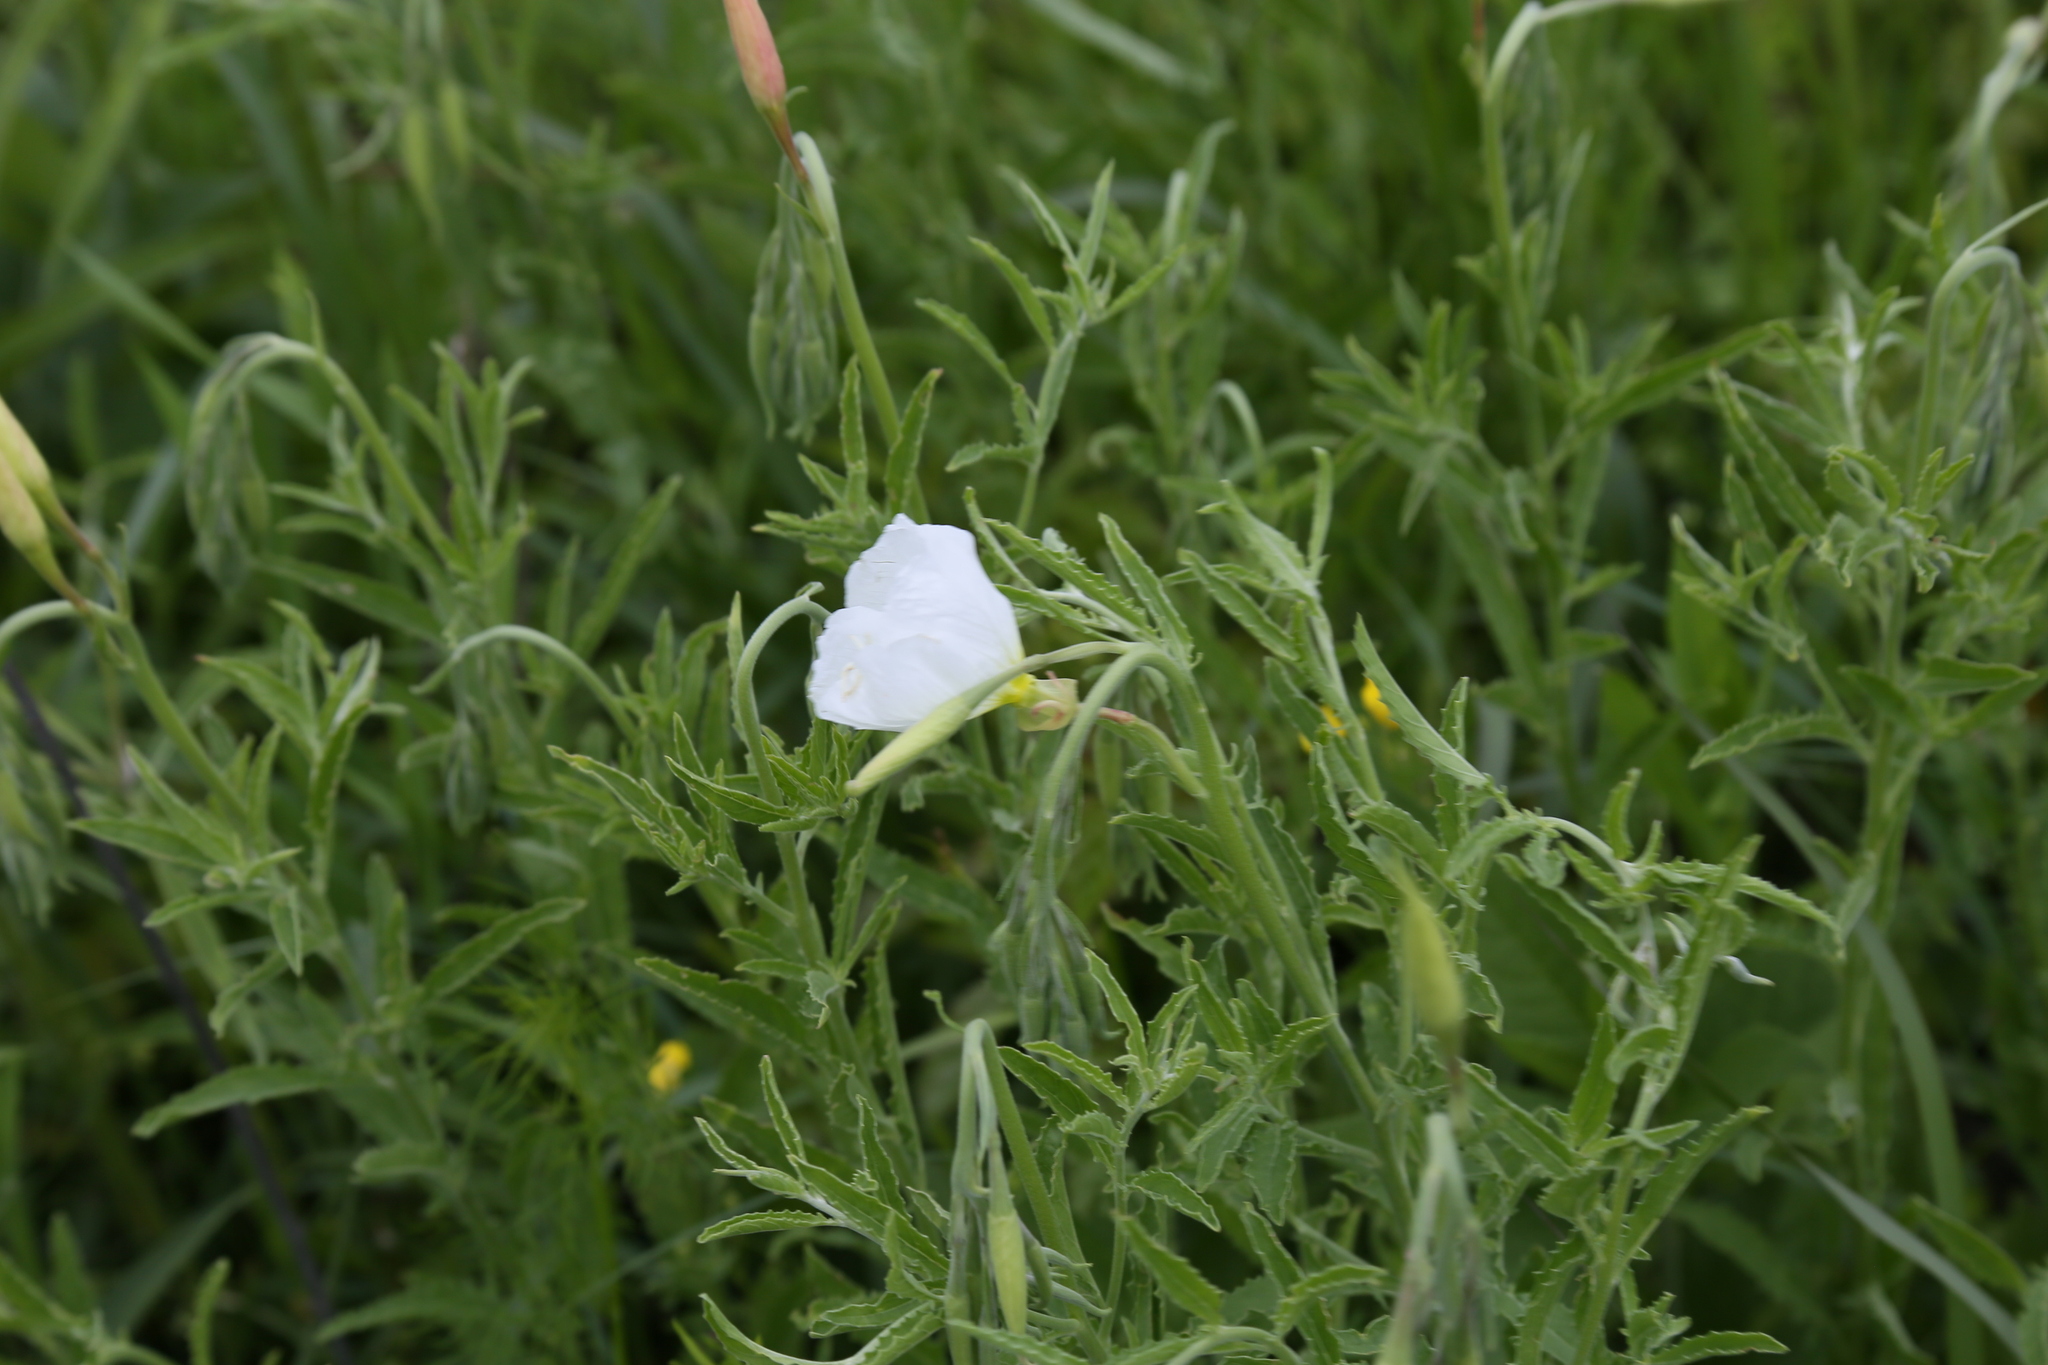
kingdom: Plantae
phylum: Tracheophyta
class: Magnoliopsida
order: Myrtales
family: Onagraceae
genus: Oenothera
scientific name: Oenothera speciosa
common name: White evening-primrose
